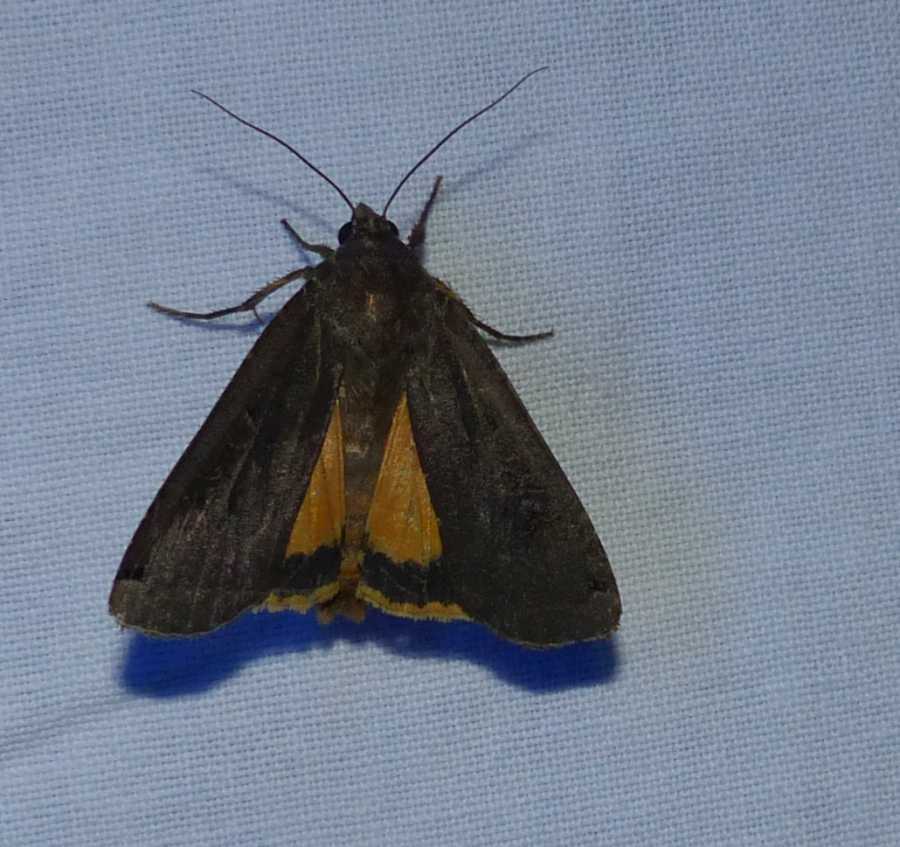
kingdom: Animalia
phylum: Arthropoda
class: Insecta
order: Lepidoptera
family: Noctuidae
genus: Noctua
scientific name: Noctua pronuba
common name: Large yellow underwing
